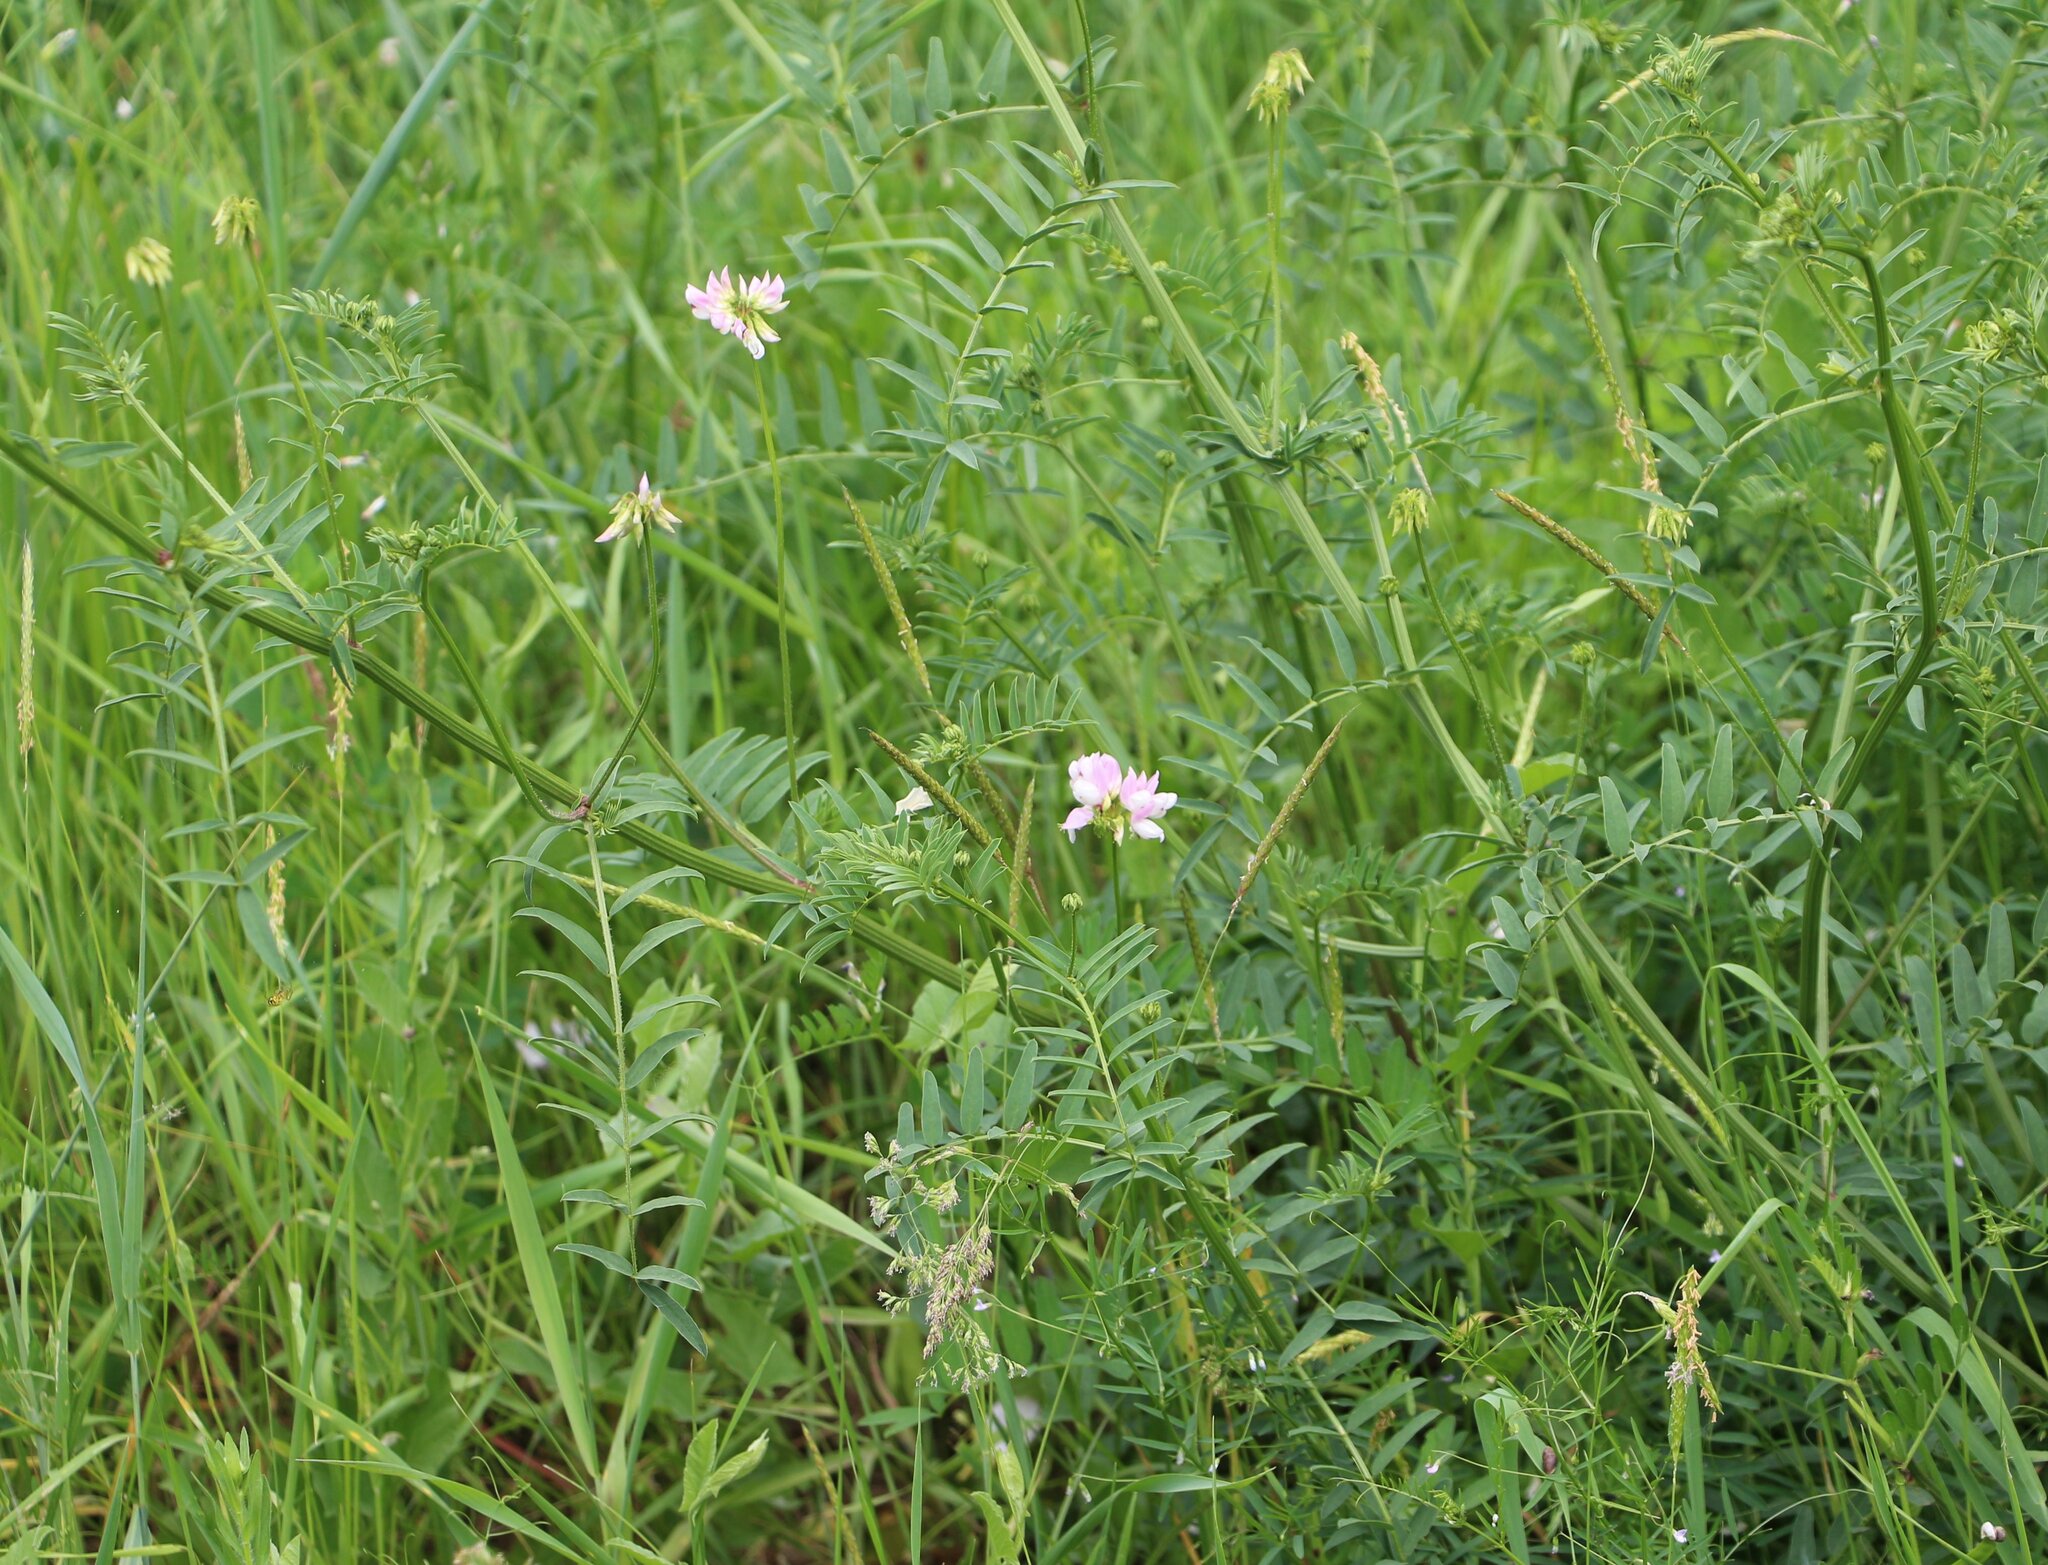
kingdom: Plantae
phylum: Tracheophyta
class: Magnoliopsida
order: Fabales
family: Fabaceae
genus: Coronilla
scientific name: Coronilla varia
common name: Crownvetch
